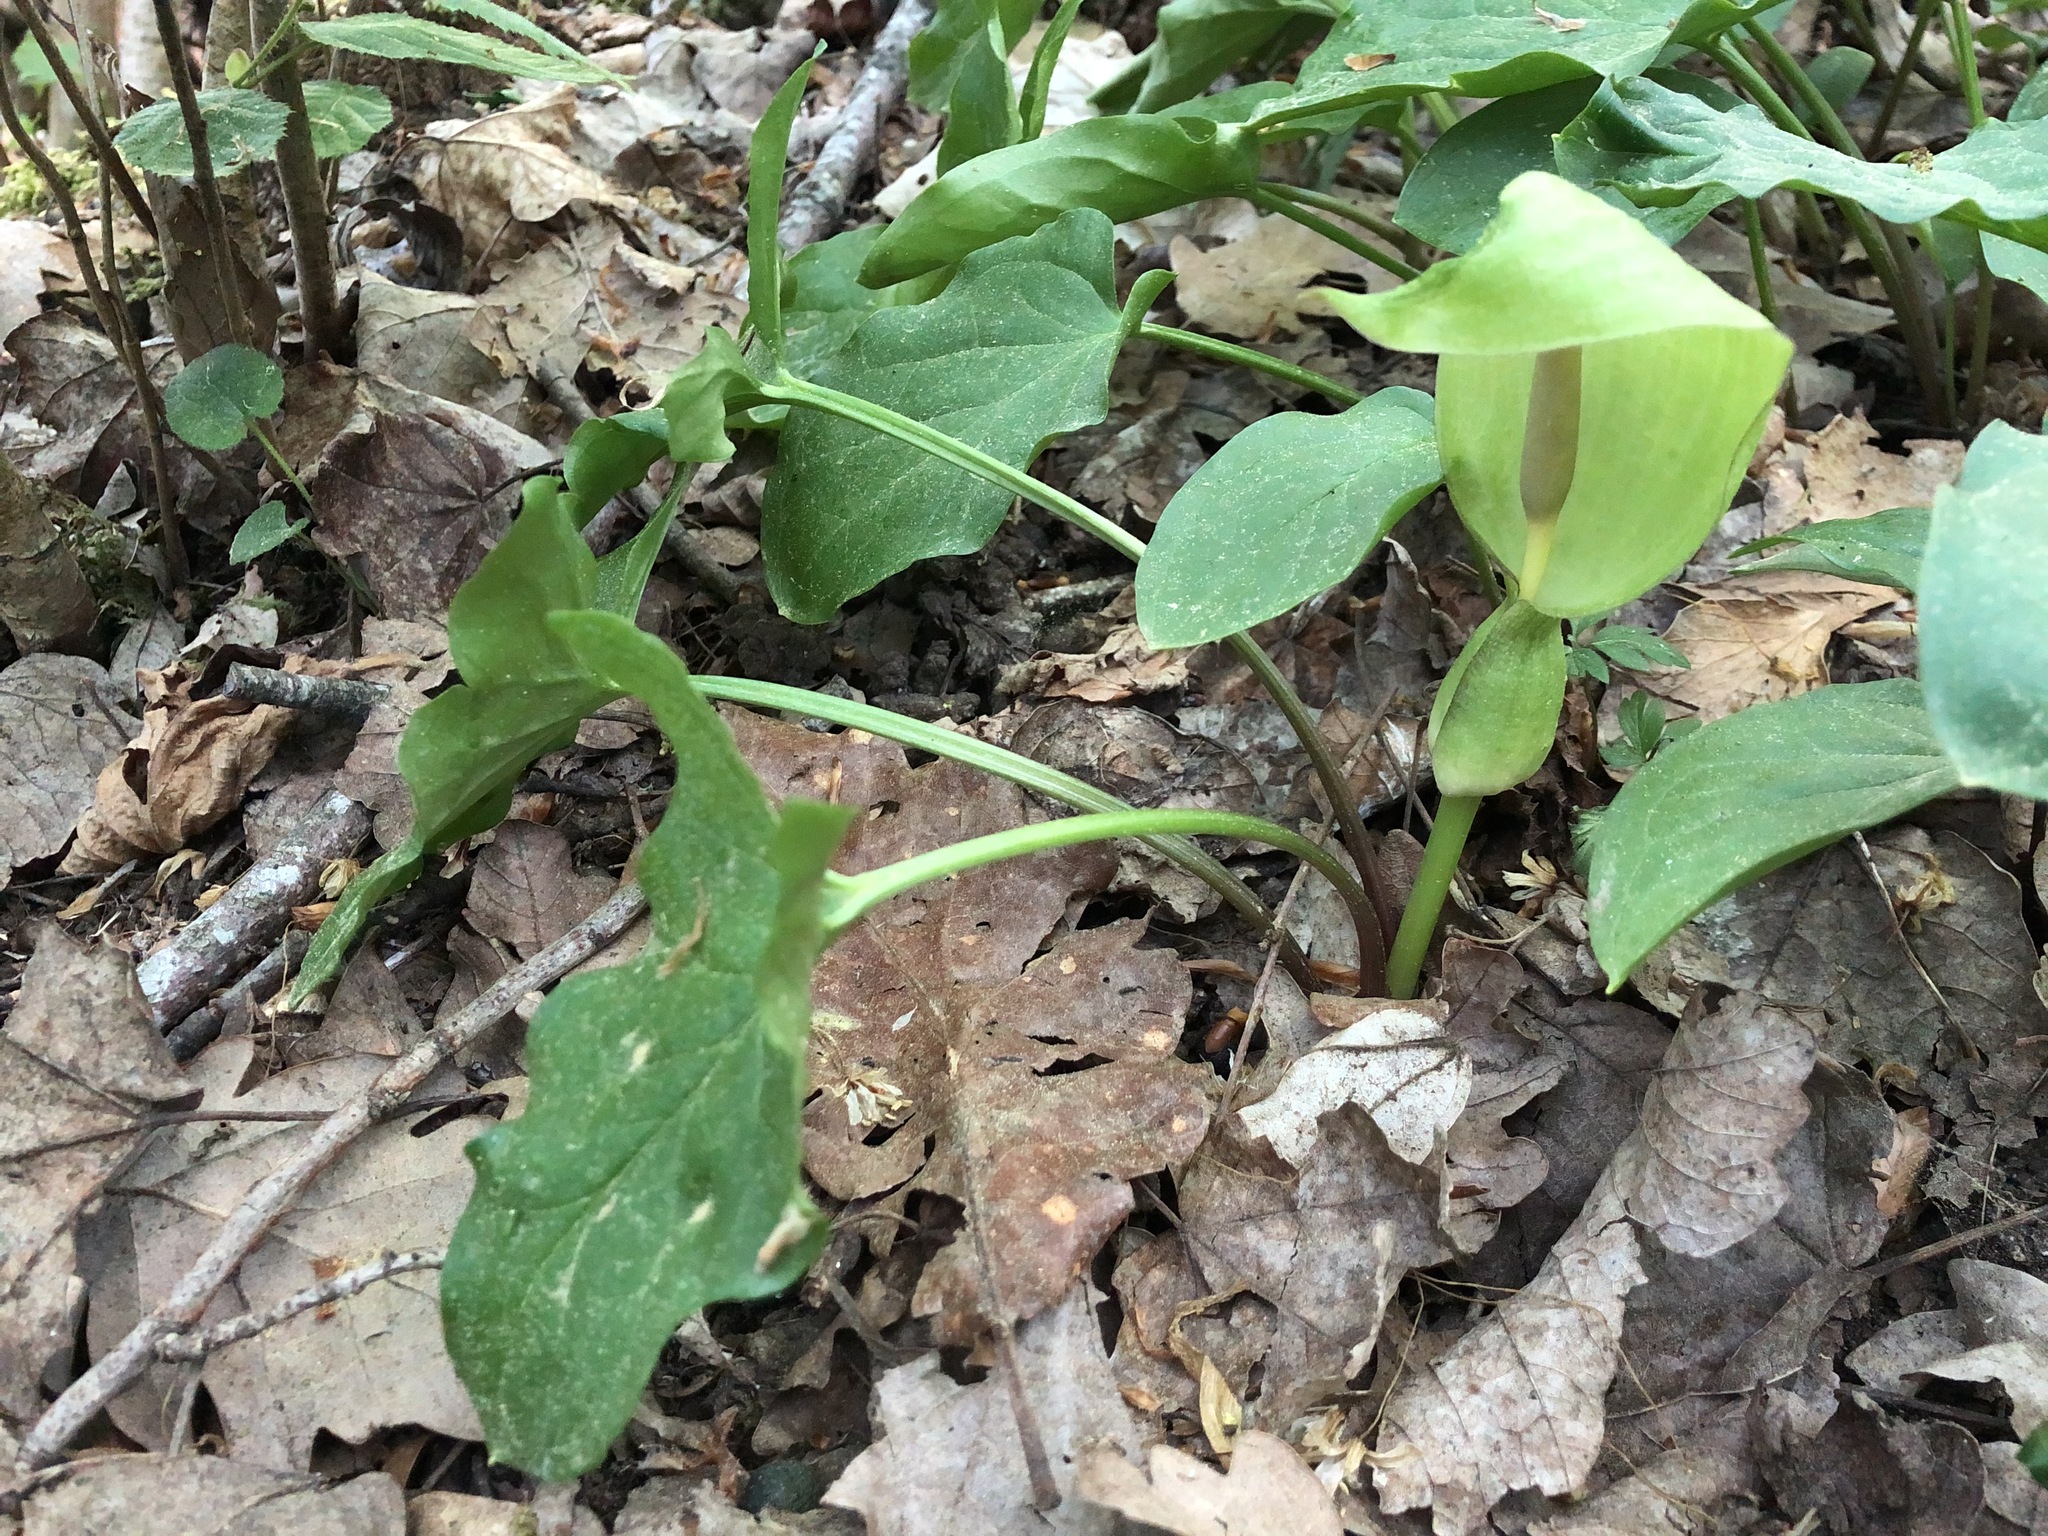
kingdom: Plantae
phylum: Tracheophyta
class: Liliopsida
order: Alismatales
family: Araceae
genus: Arum
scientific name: Arum maculatum
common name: Lords-and-ladies
